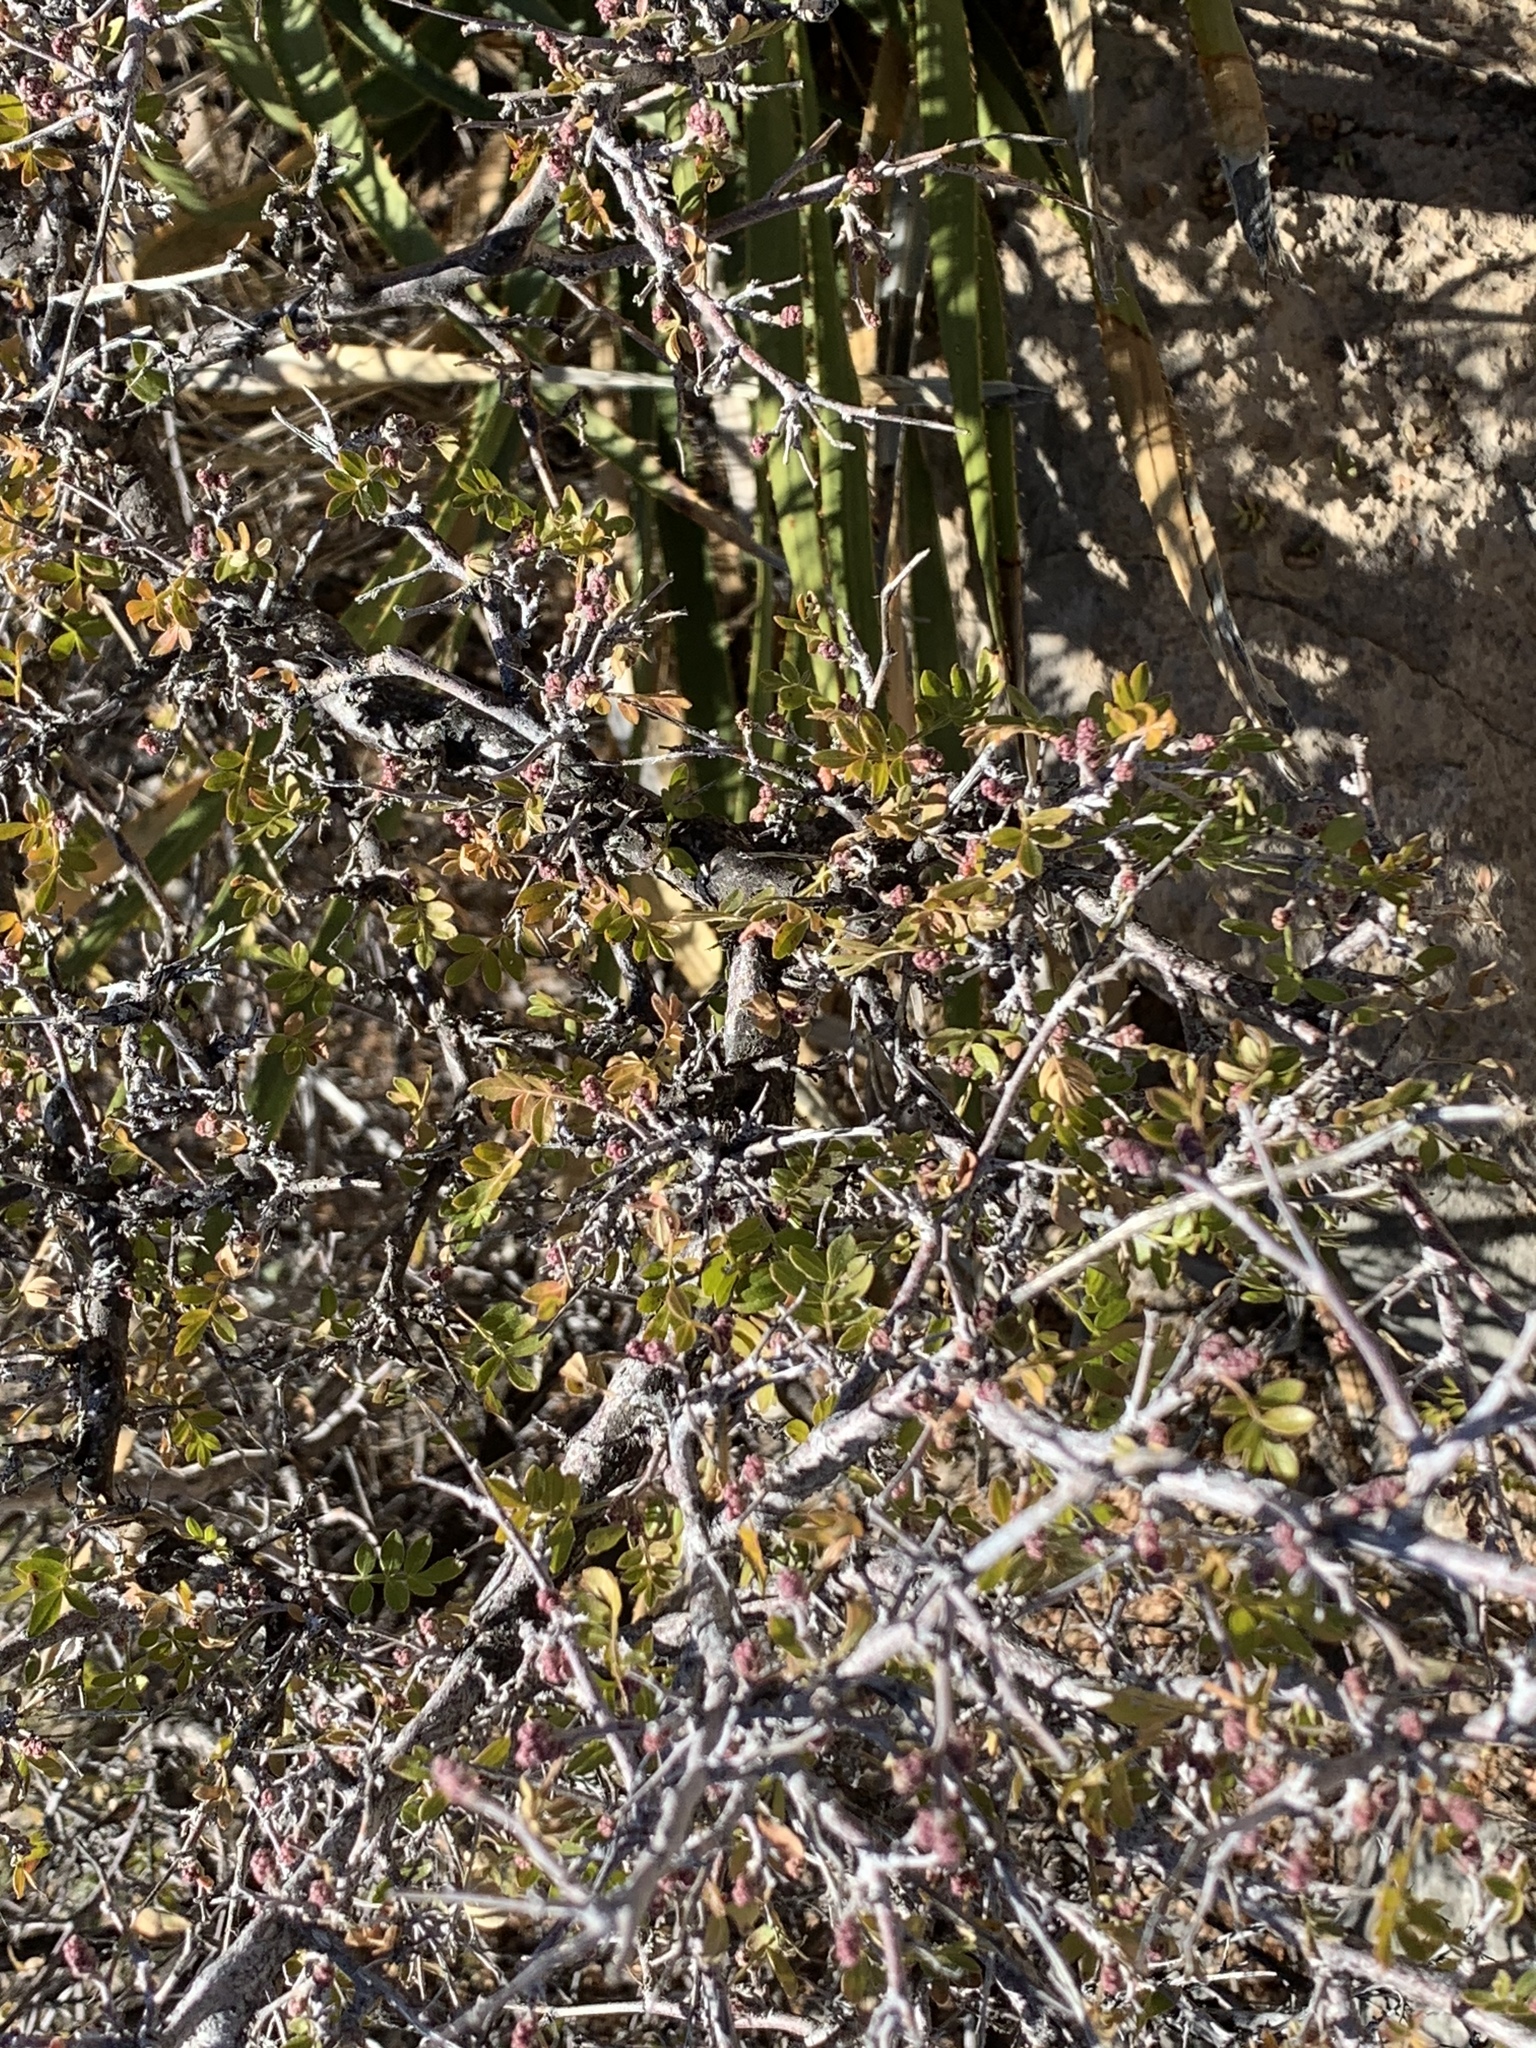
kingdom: Plantae
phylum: Tracheophyta
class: Magnoliopsida
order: Sapindales
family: Anacardiaceae
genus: Rhus
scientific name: Rhus microphylla
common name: Desert sumac
